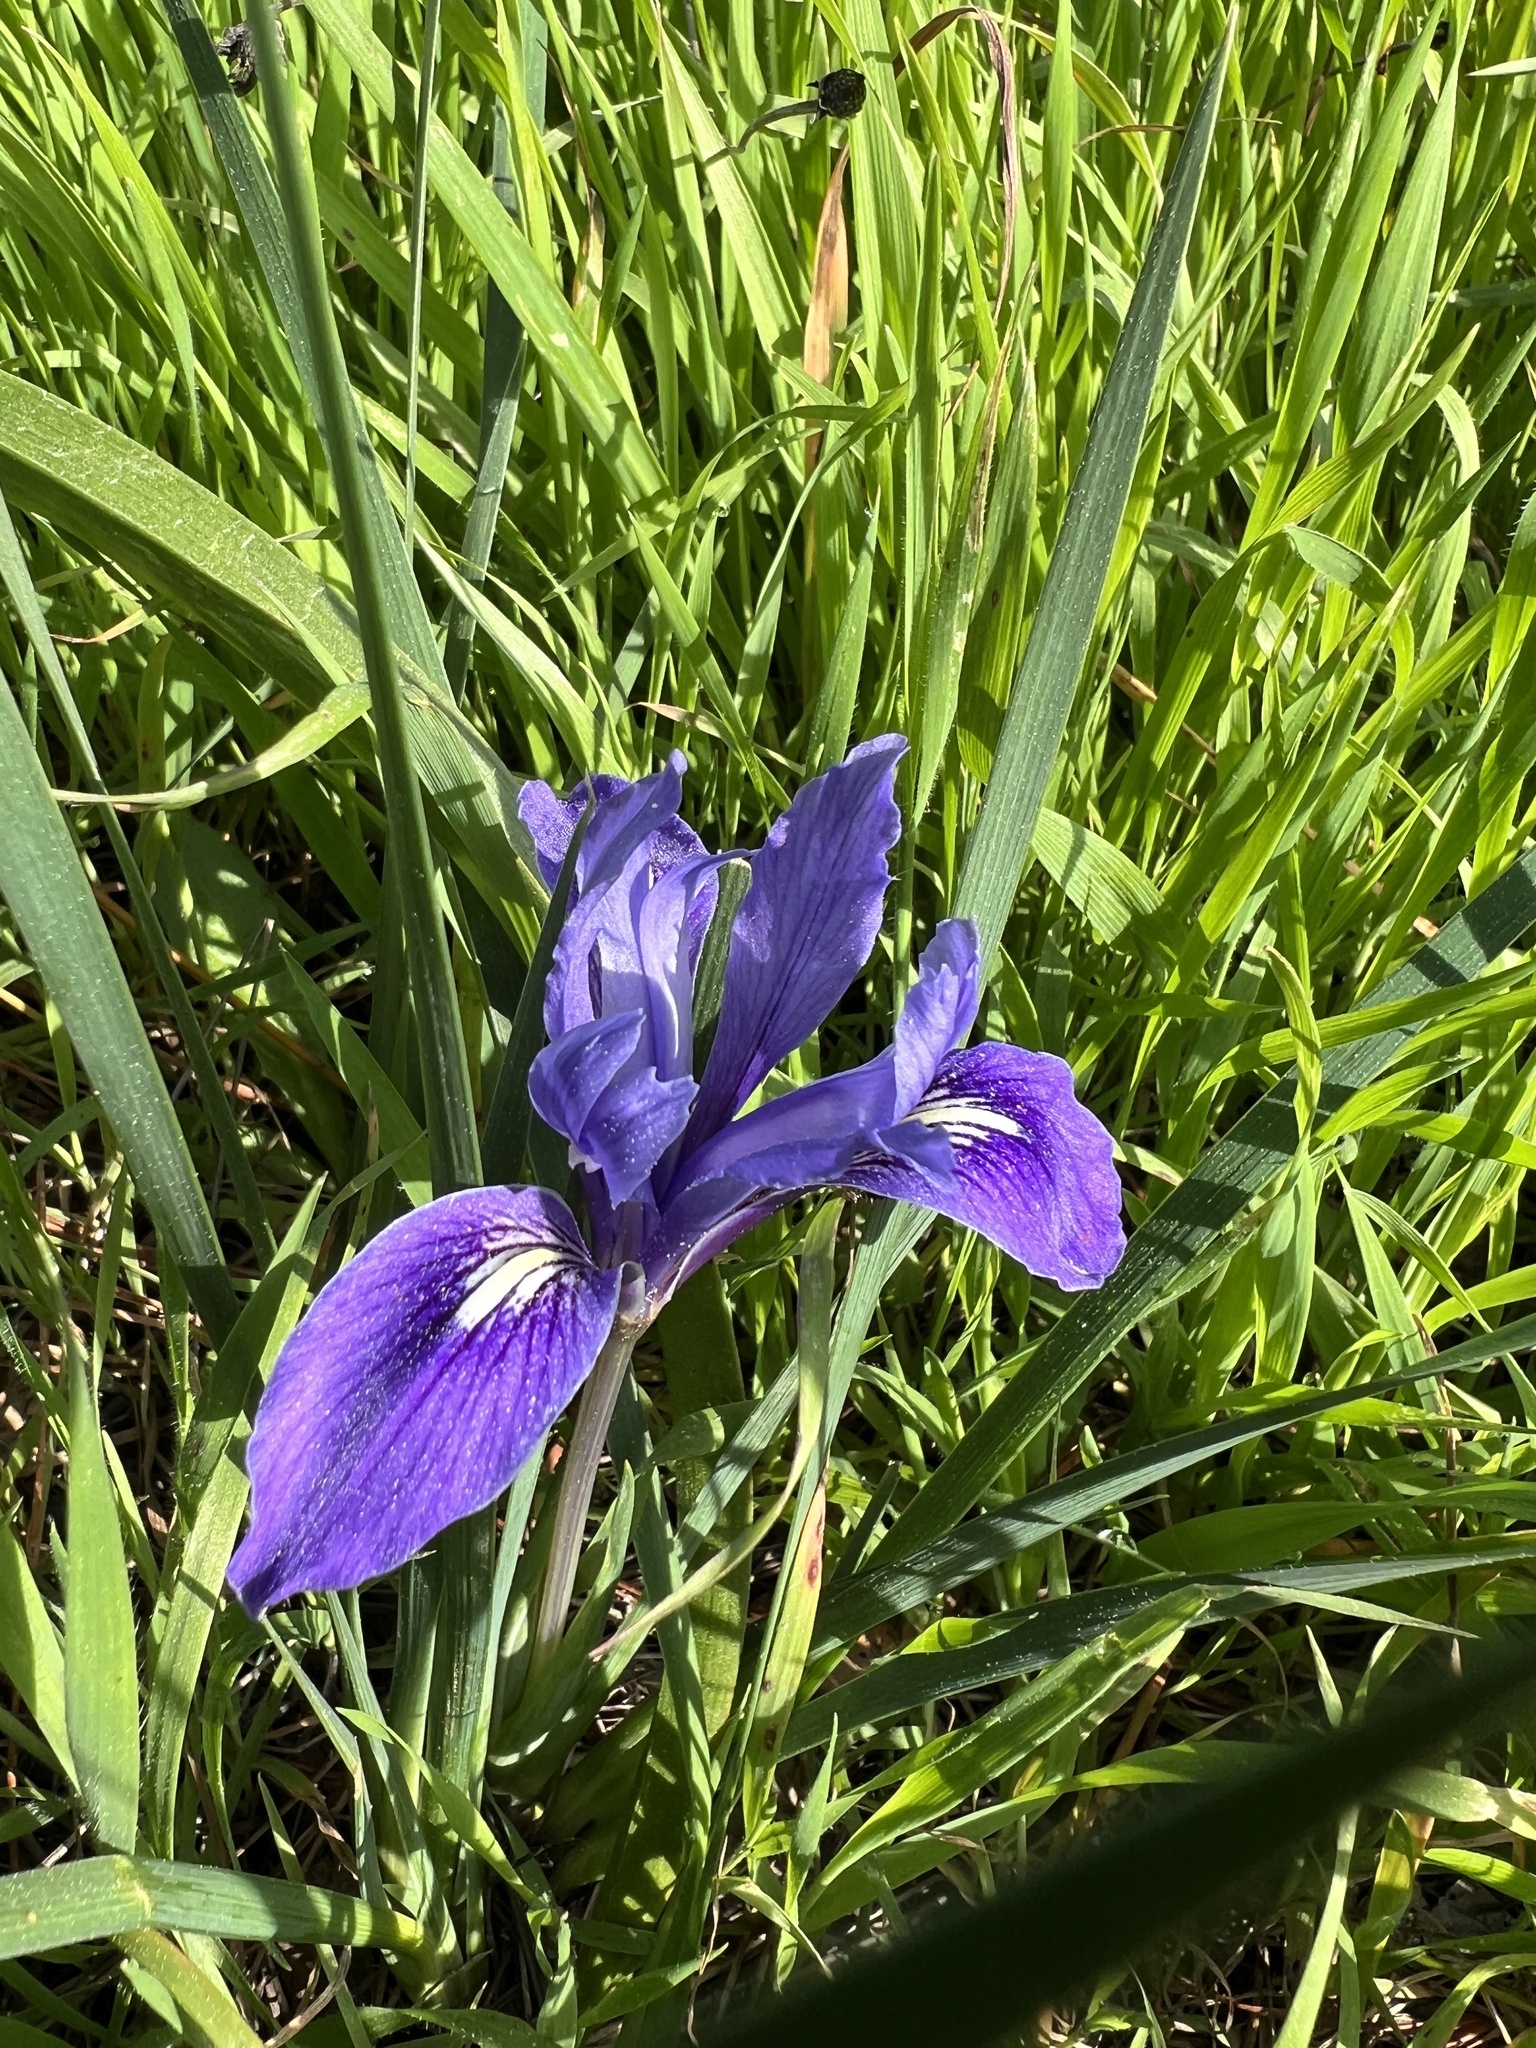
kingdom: Plantae
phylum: Tracheophyta
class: Liliopsida
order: Asparagales
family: Iridaceae
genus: Iris
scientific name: Iris macrosiphon
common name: Ground iris
